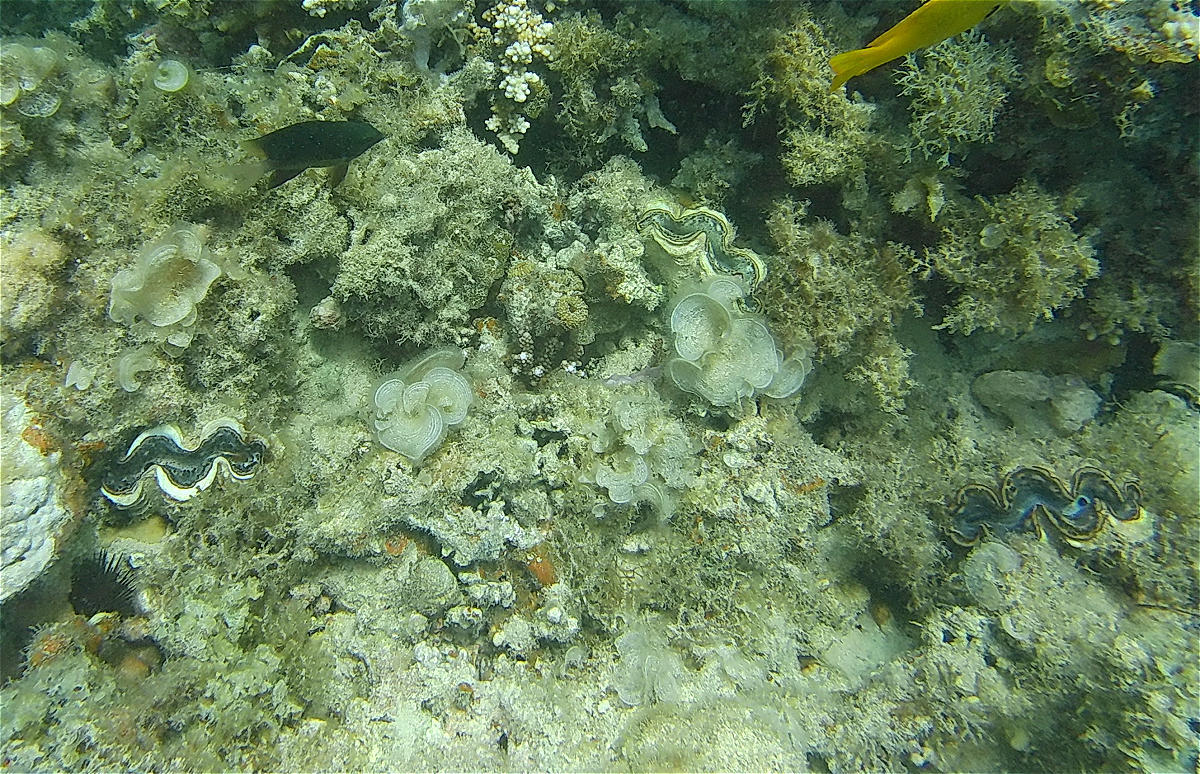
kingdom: Animalia
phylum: Mollusca
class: Bivalvia
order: Cardiida
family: Cardiidae
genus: Tridacna
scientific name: Tridacna maxima
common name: Small giant clam
